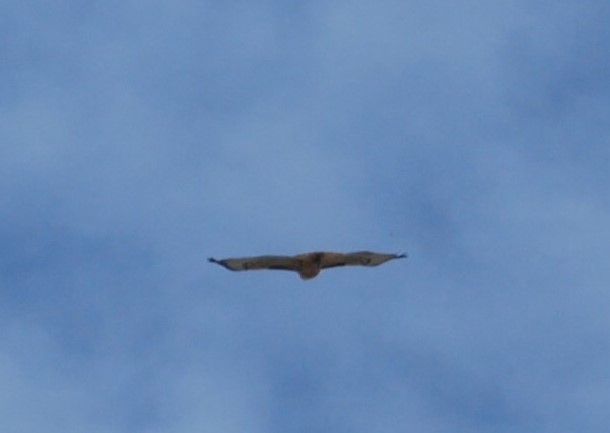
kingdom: Animalia
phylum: Chordata
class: Aves
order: Accipitriformes
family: Accipitridae
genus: Buteo
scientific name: Buteo jamaicensis
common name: Red-tailed hawk
